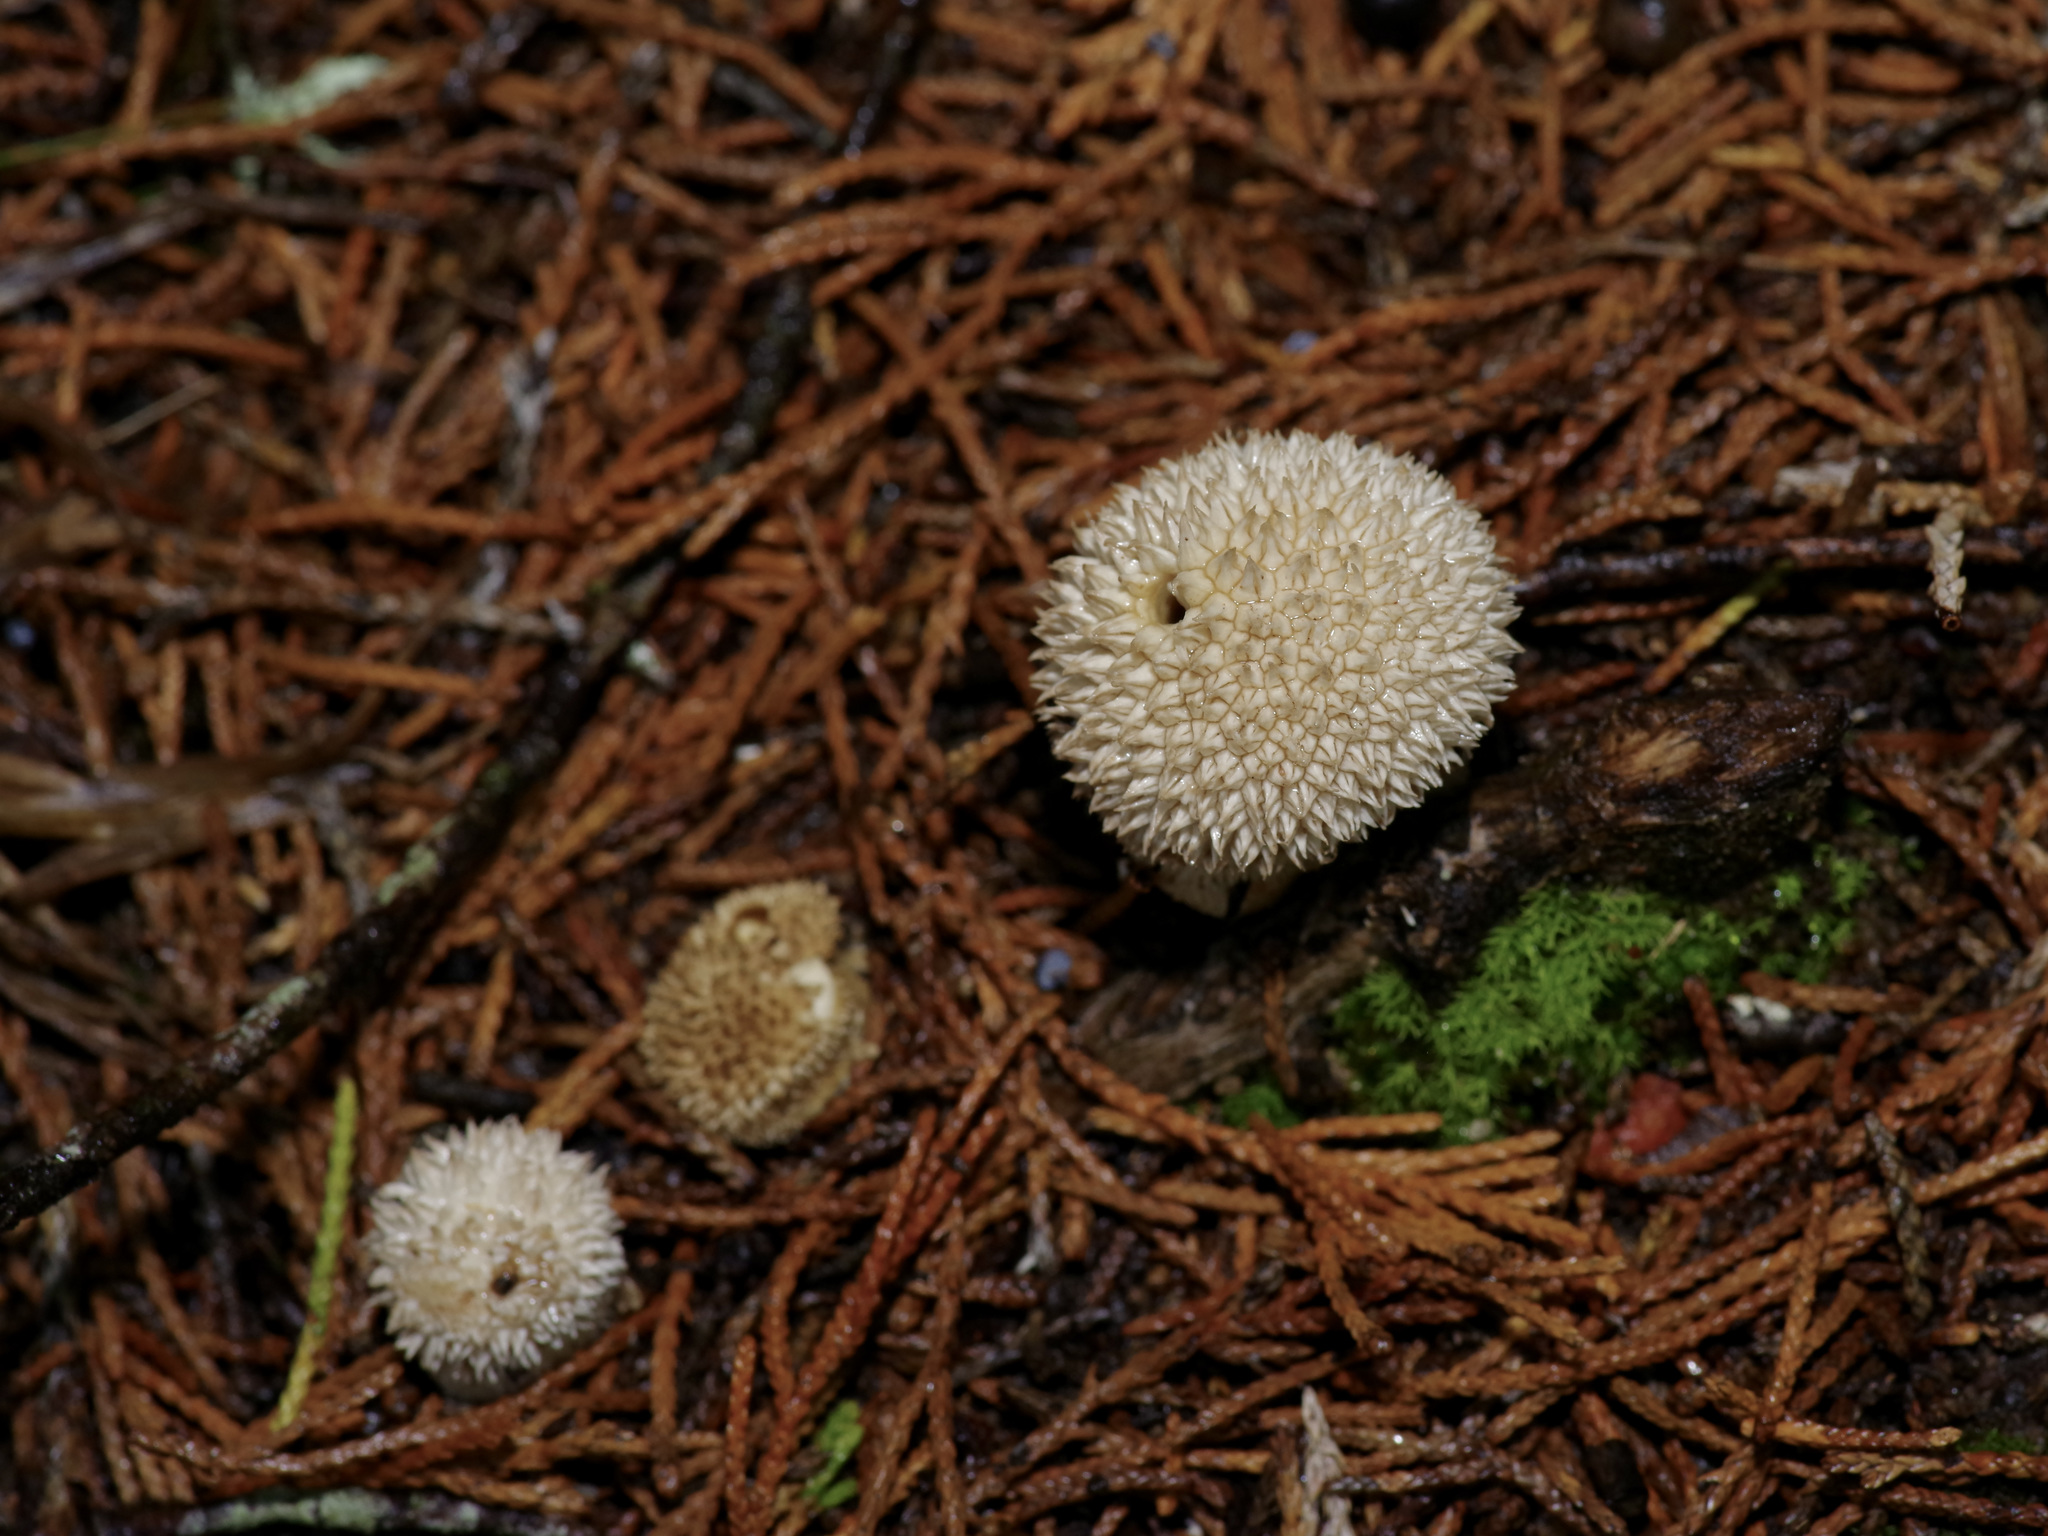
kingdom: Fungi
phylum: Basidiomycota
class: Agaricomycetes
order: Agaricales
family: Agaricaceae
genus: Lycoperdon
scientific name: Lycoperdon marginatum
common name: Peeling puffball
